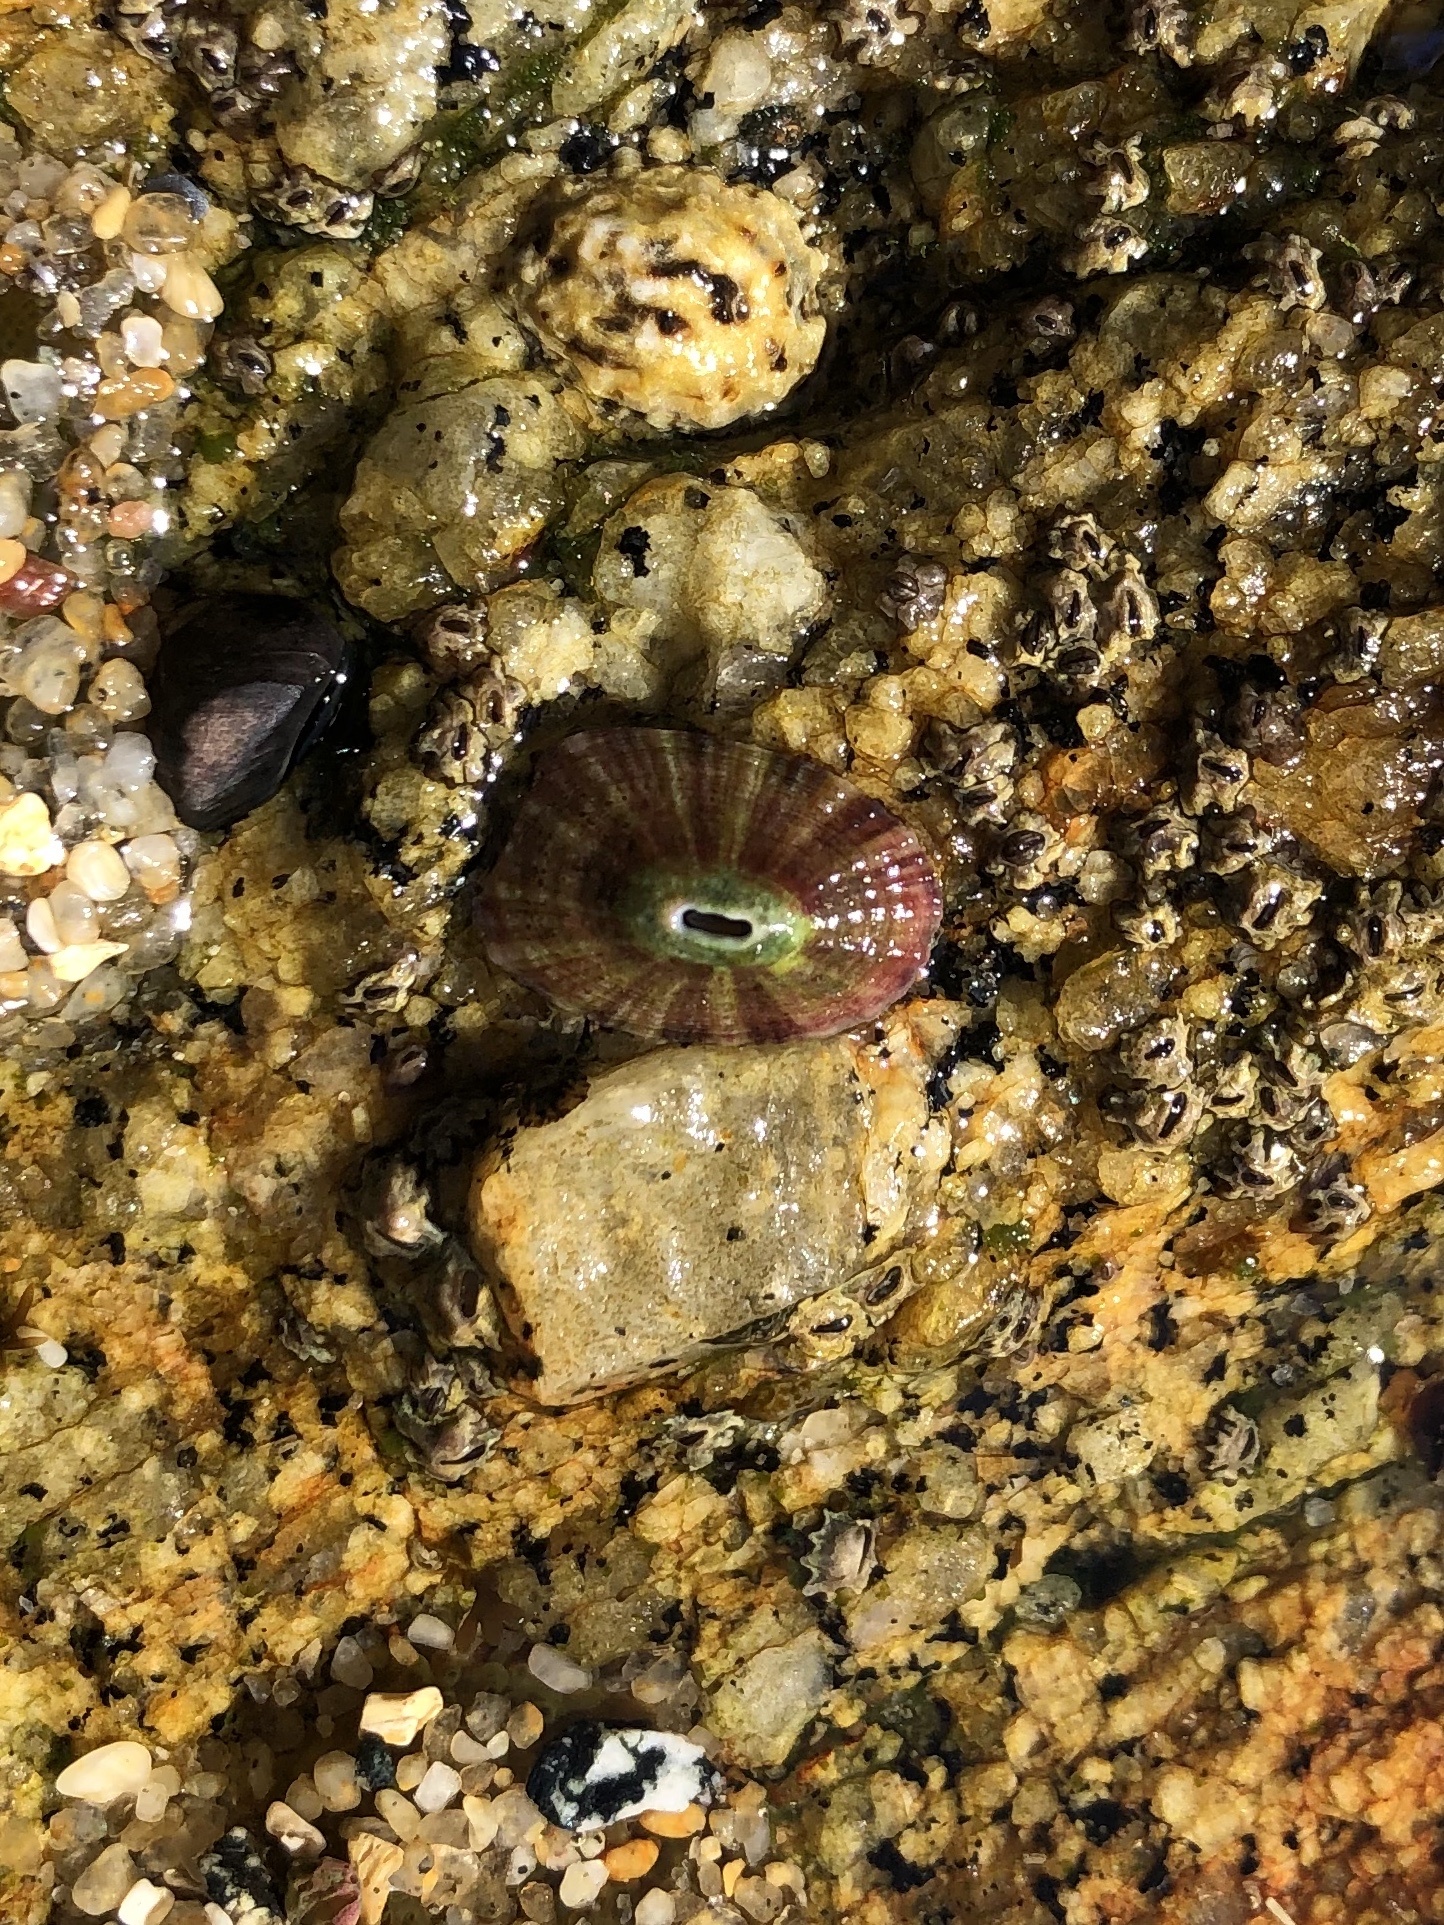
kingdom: Animalia
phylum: Mollusca
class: Gastropoda
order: Lepetellida
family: Fissurellidae
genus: Fissurella
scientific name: Fissurella volcano
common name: Volcano keyhole limpet
